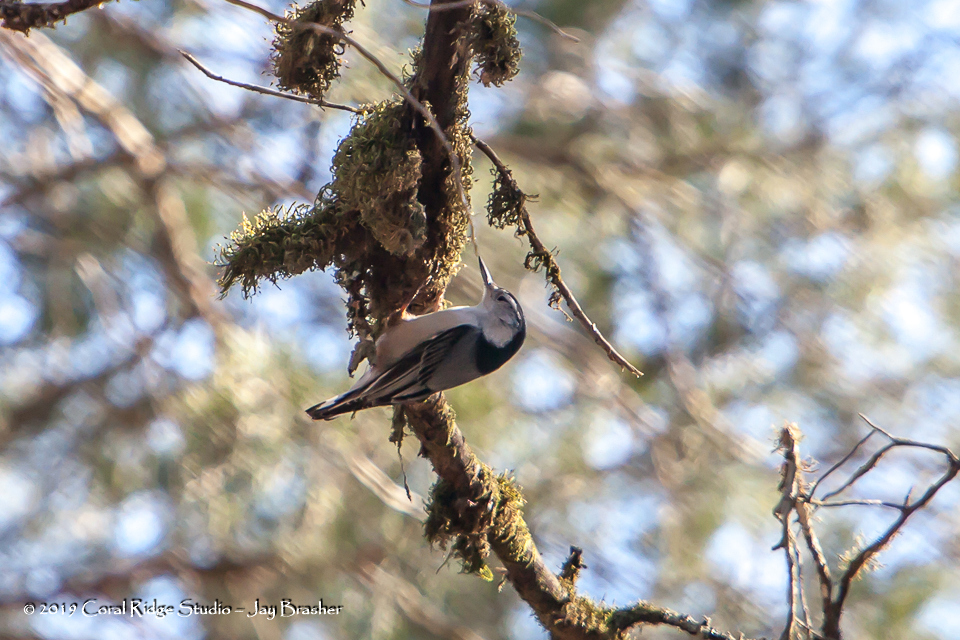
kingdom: Animalia
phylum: Chordata
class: Aves
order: Passeriformes
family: Sittidae
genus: Sitta
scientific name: Sitta carolinensis
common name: White-breasted nuthatch
